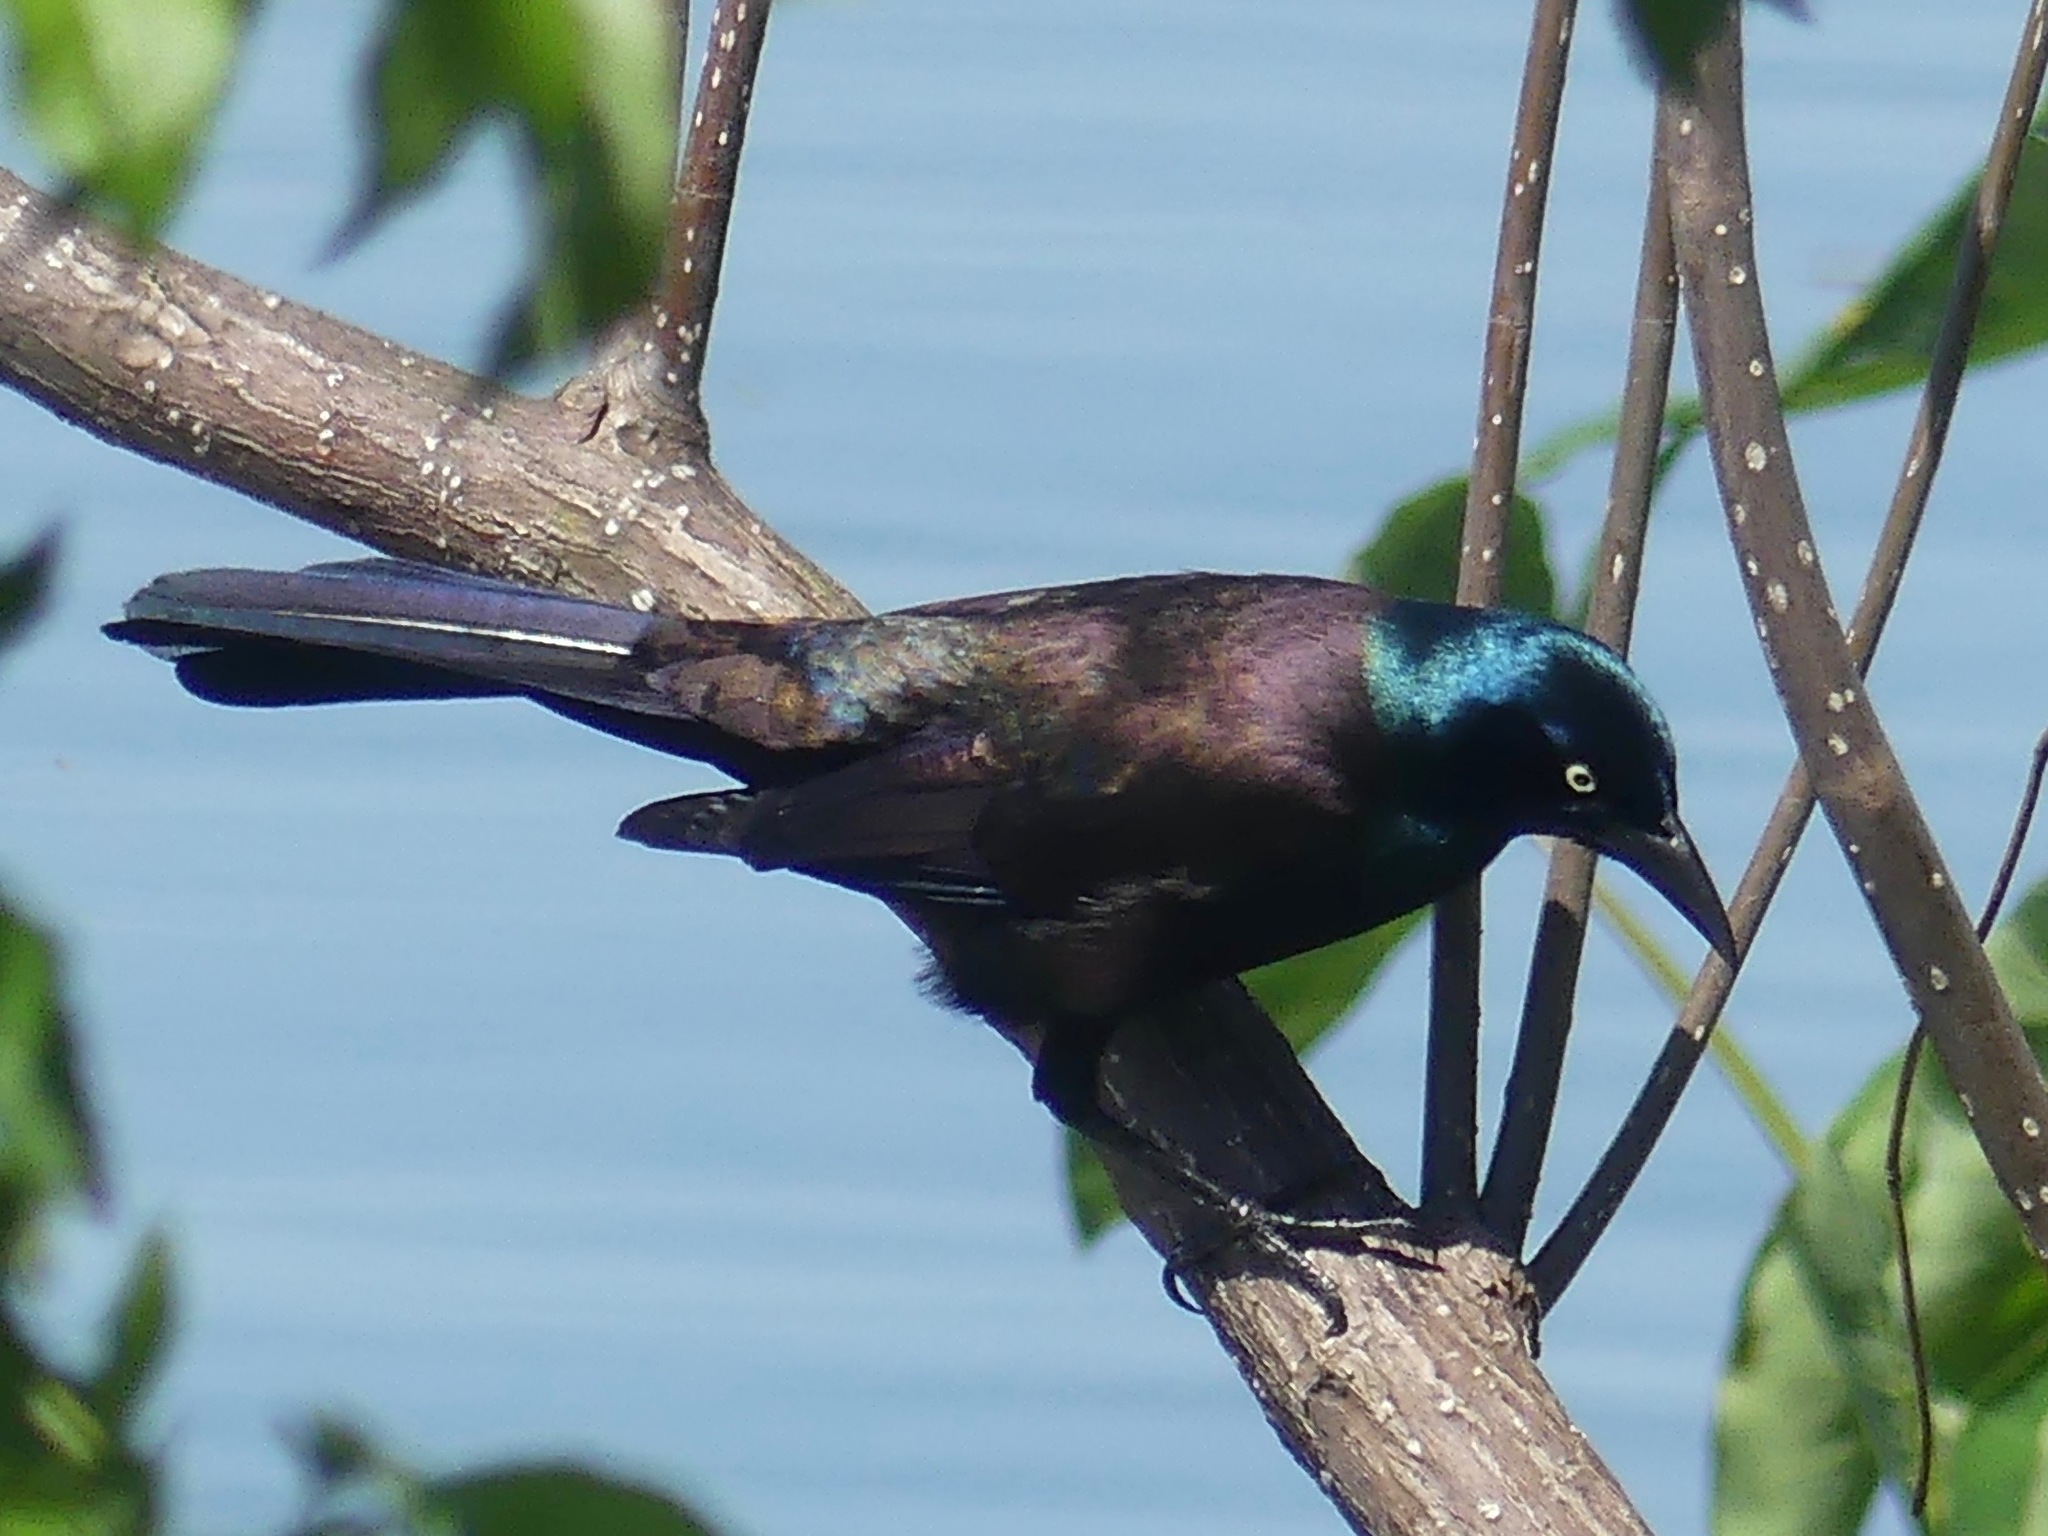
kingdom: Animalia
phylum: Chordata
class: Aves
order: Passeriformes
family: Icteridae
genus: Quiscalus
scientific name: Quiscalus quiscula
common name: Common grackle
